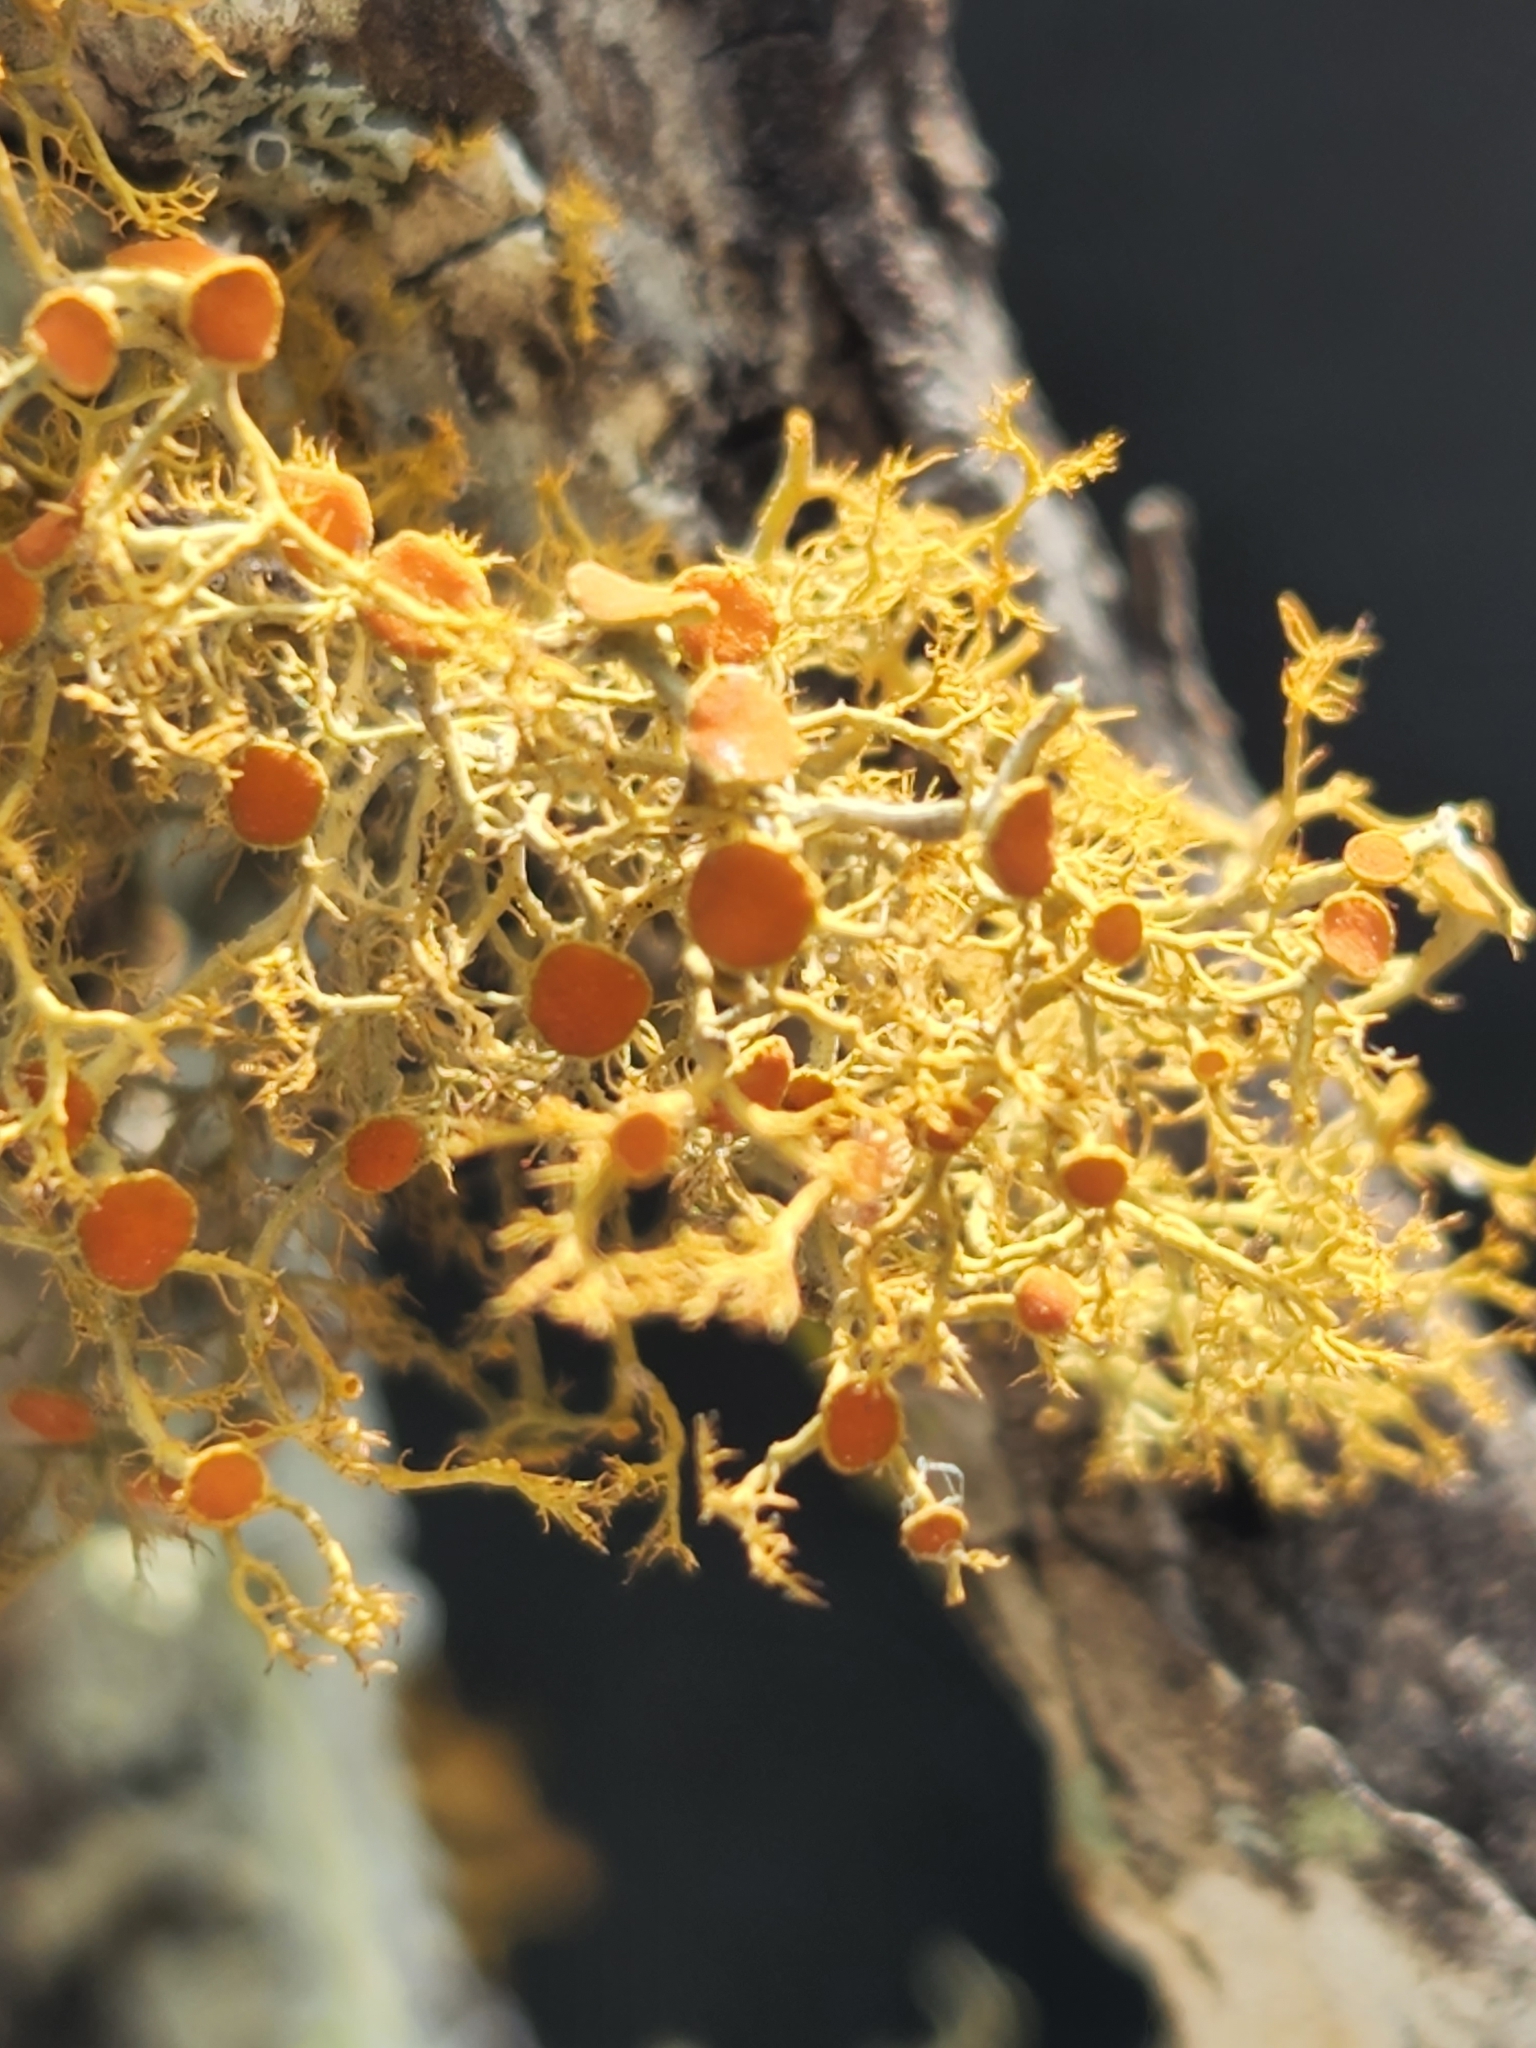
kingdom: Fungi
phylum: Ascomycota
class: Lecanoromycetes
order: Teloschistales
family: Teloschistaceae
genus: Teloschistes
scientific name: Teloschistes exilis
